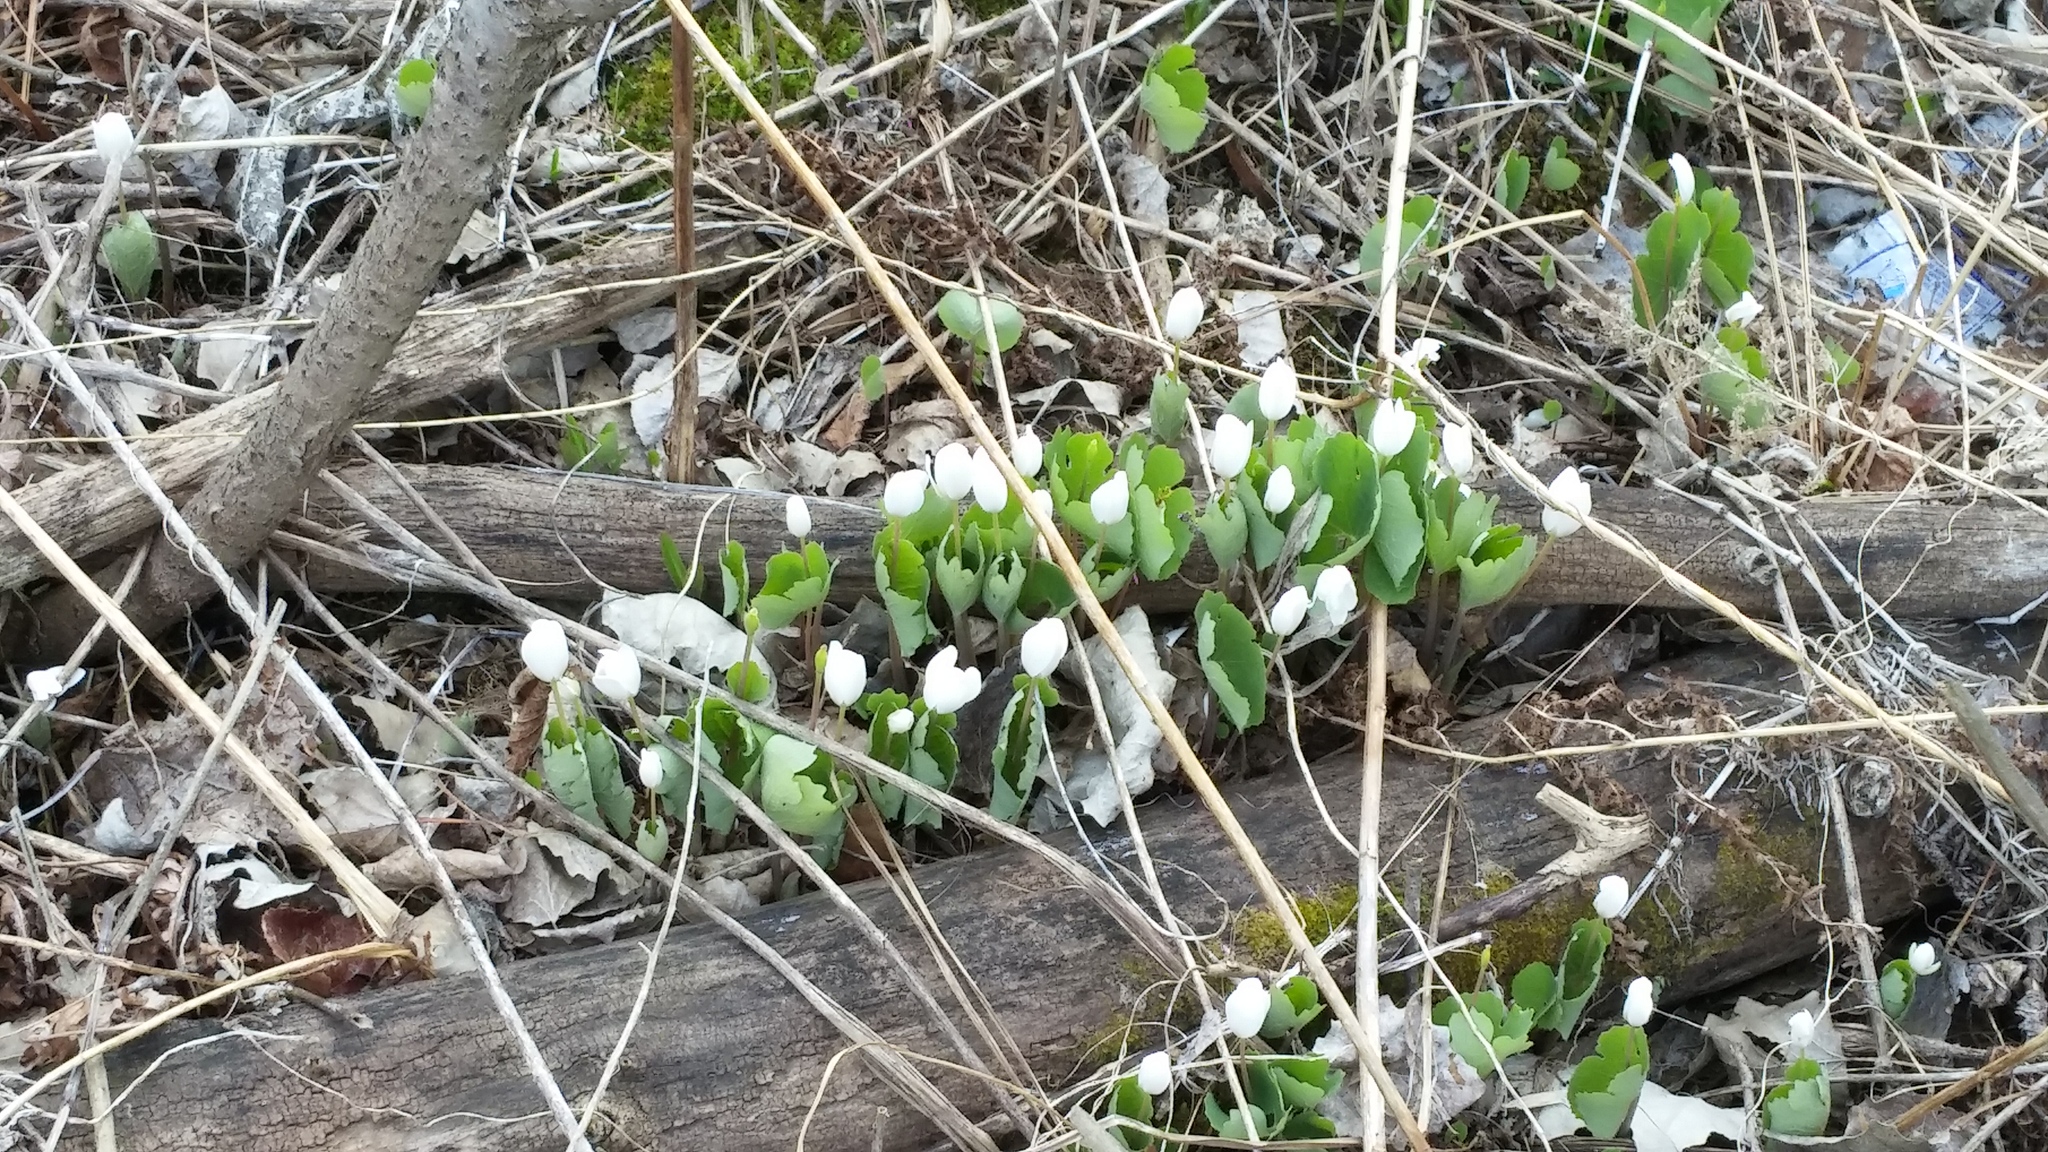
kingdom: Plantae
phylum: Tracheophyta
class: Magnoliopsida
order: Ranunculales
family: Papaveraceae
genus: Sanguinaria
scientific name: Sanguinaria canadensis
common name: Bloodroot
